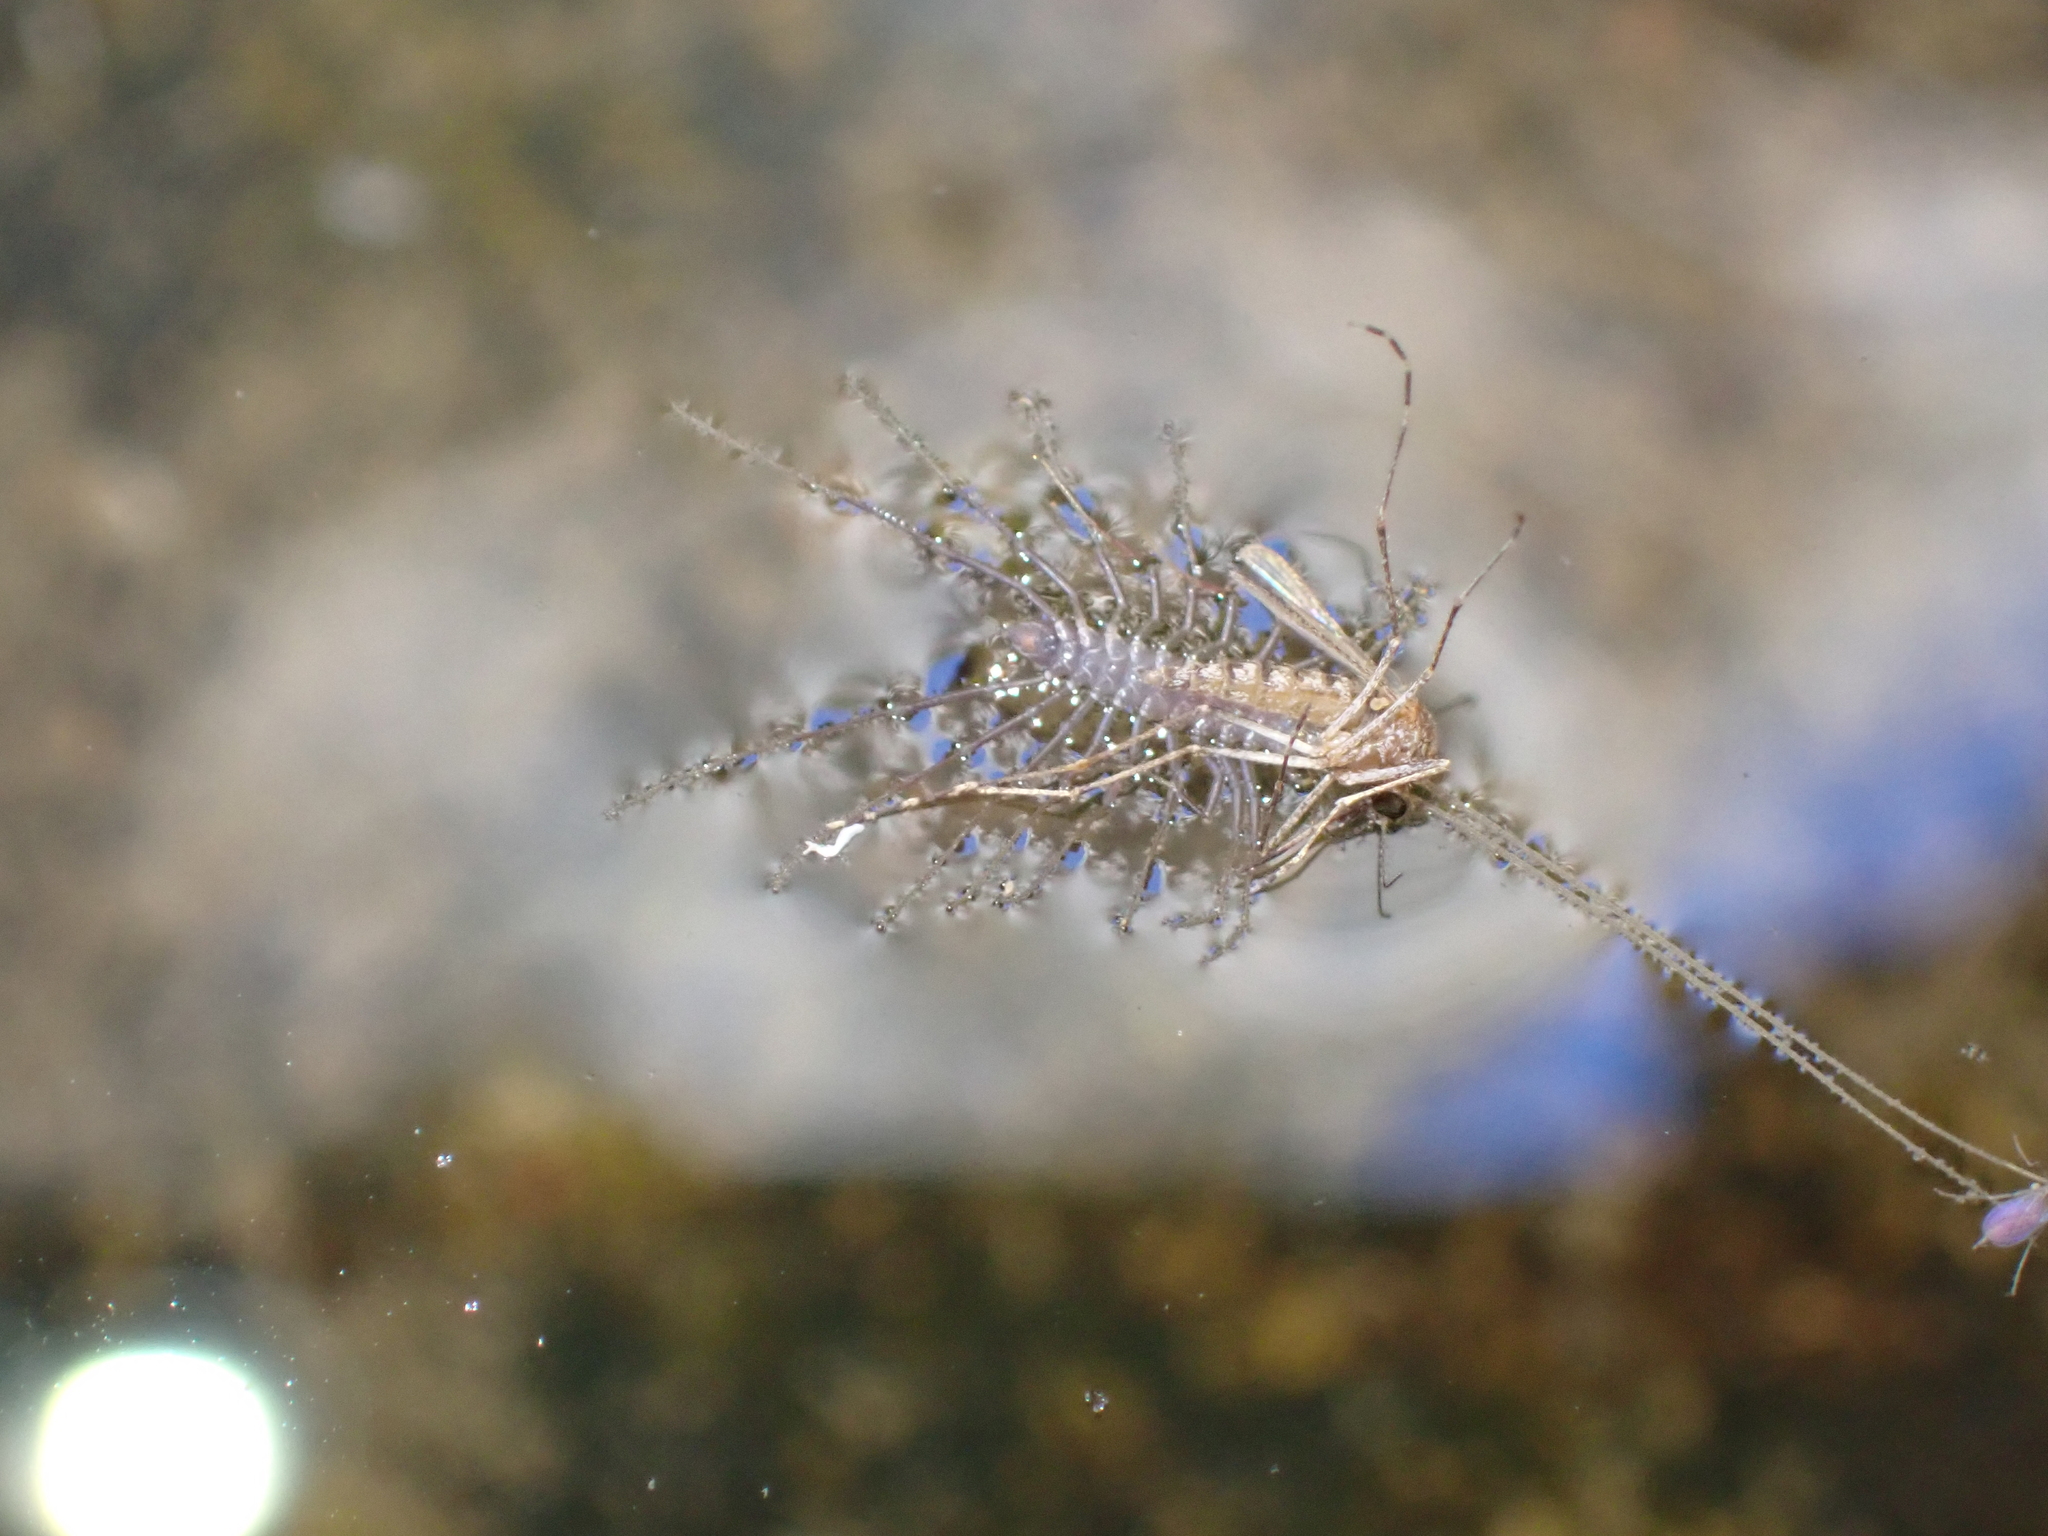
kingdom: Animalia
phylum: Arthropoda
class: Chilopoda
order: Scutigeromorpha
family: Scutigeridae
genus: Scutigera
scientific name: Scutigera coleoptrata
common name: House centipede
